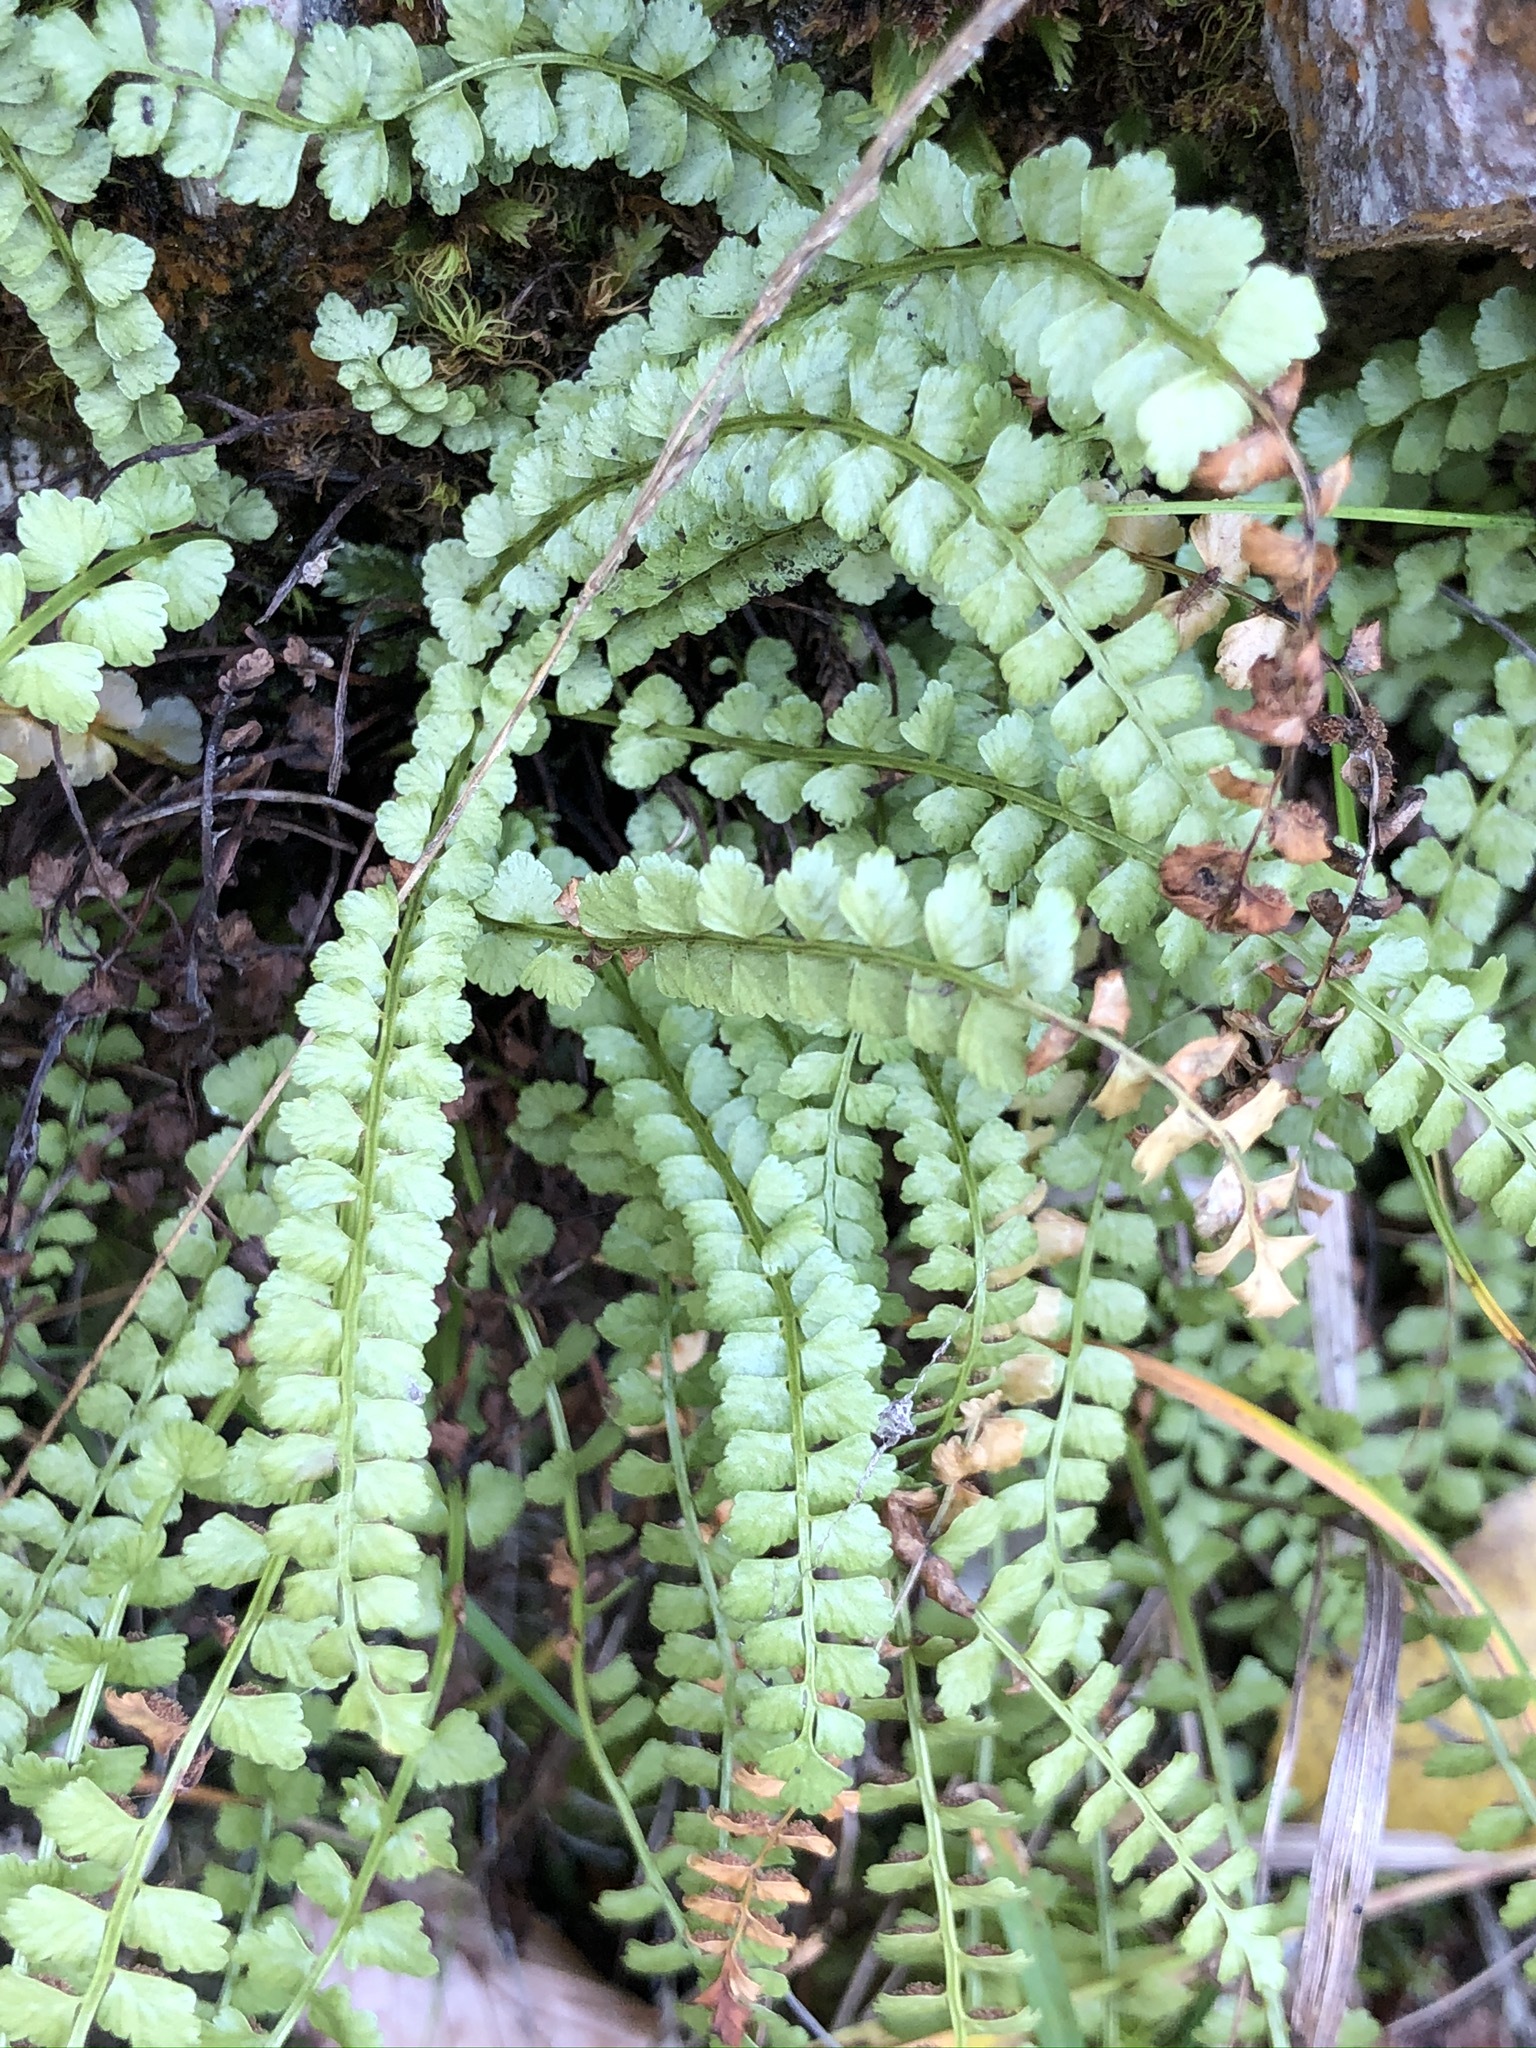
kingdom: Plantae
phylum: Tracheophyta
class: Polypodiopsida
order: Polypodiales
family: Aspleniaceae
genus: Asplenium
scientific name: Asplenium viride
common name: Green spleenwort
